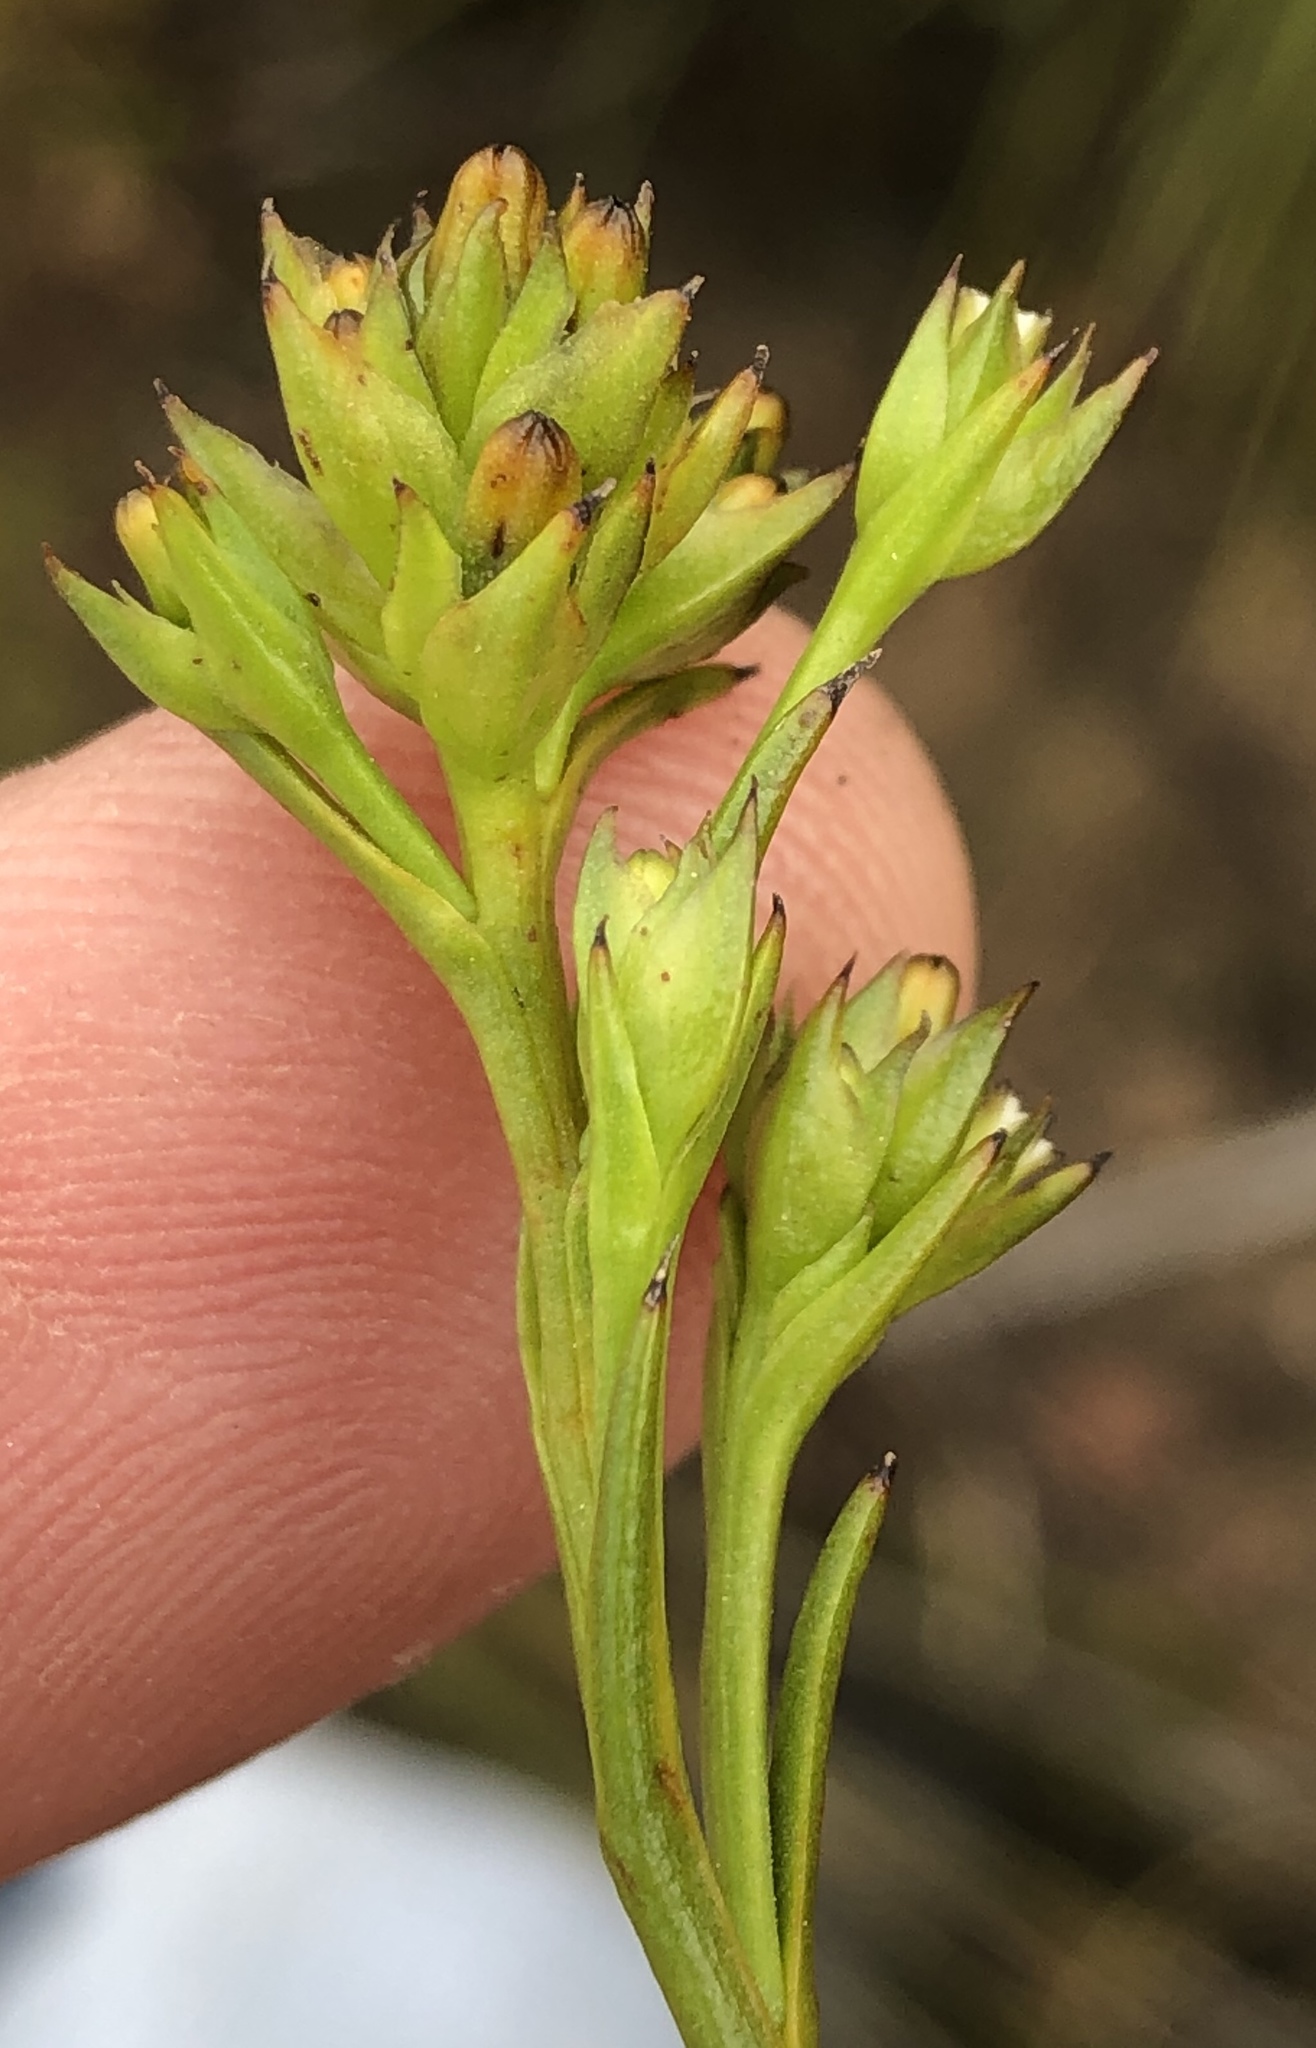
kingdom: Plantae
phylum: Tracheophyta
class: Magnoliopsida
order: Santalales
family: Thesiaceae
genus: Thesium
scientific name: Thesium strictum
